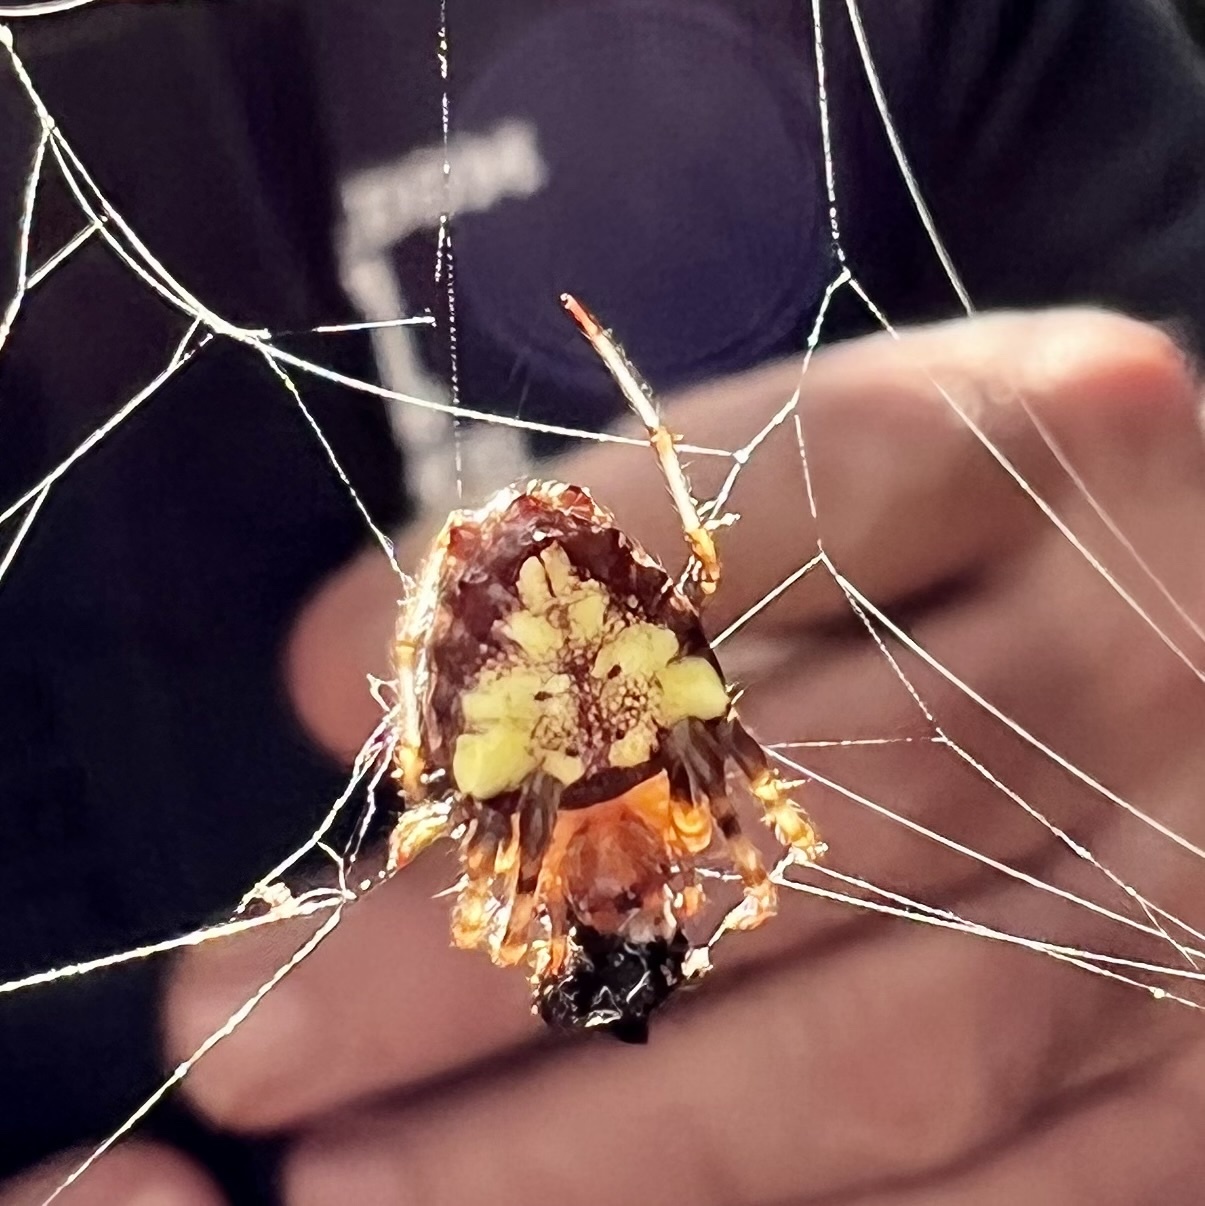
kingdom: Animalia
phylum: Arthropoda
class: Arachnida
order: Araneae
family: Araneidae
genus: Verrucosa
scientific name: Verrucosa arenata
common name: Orb weavers
